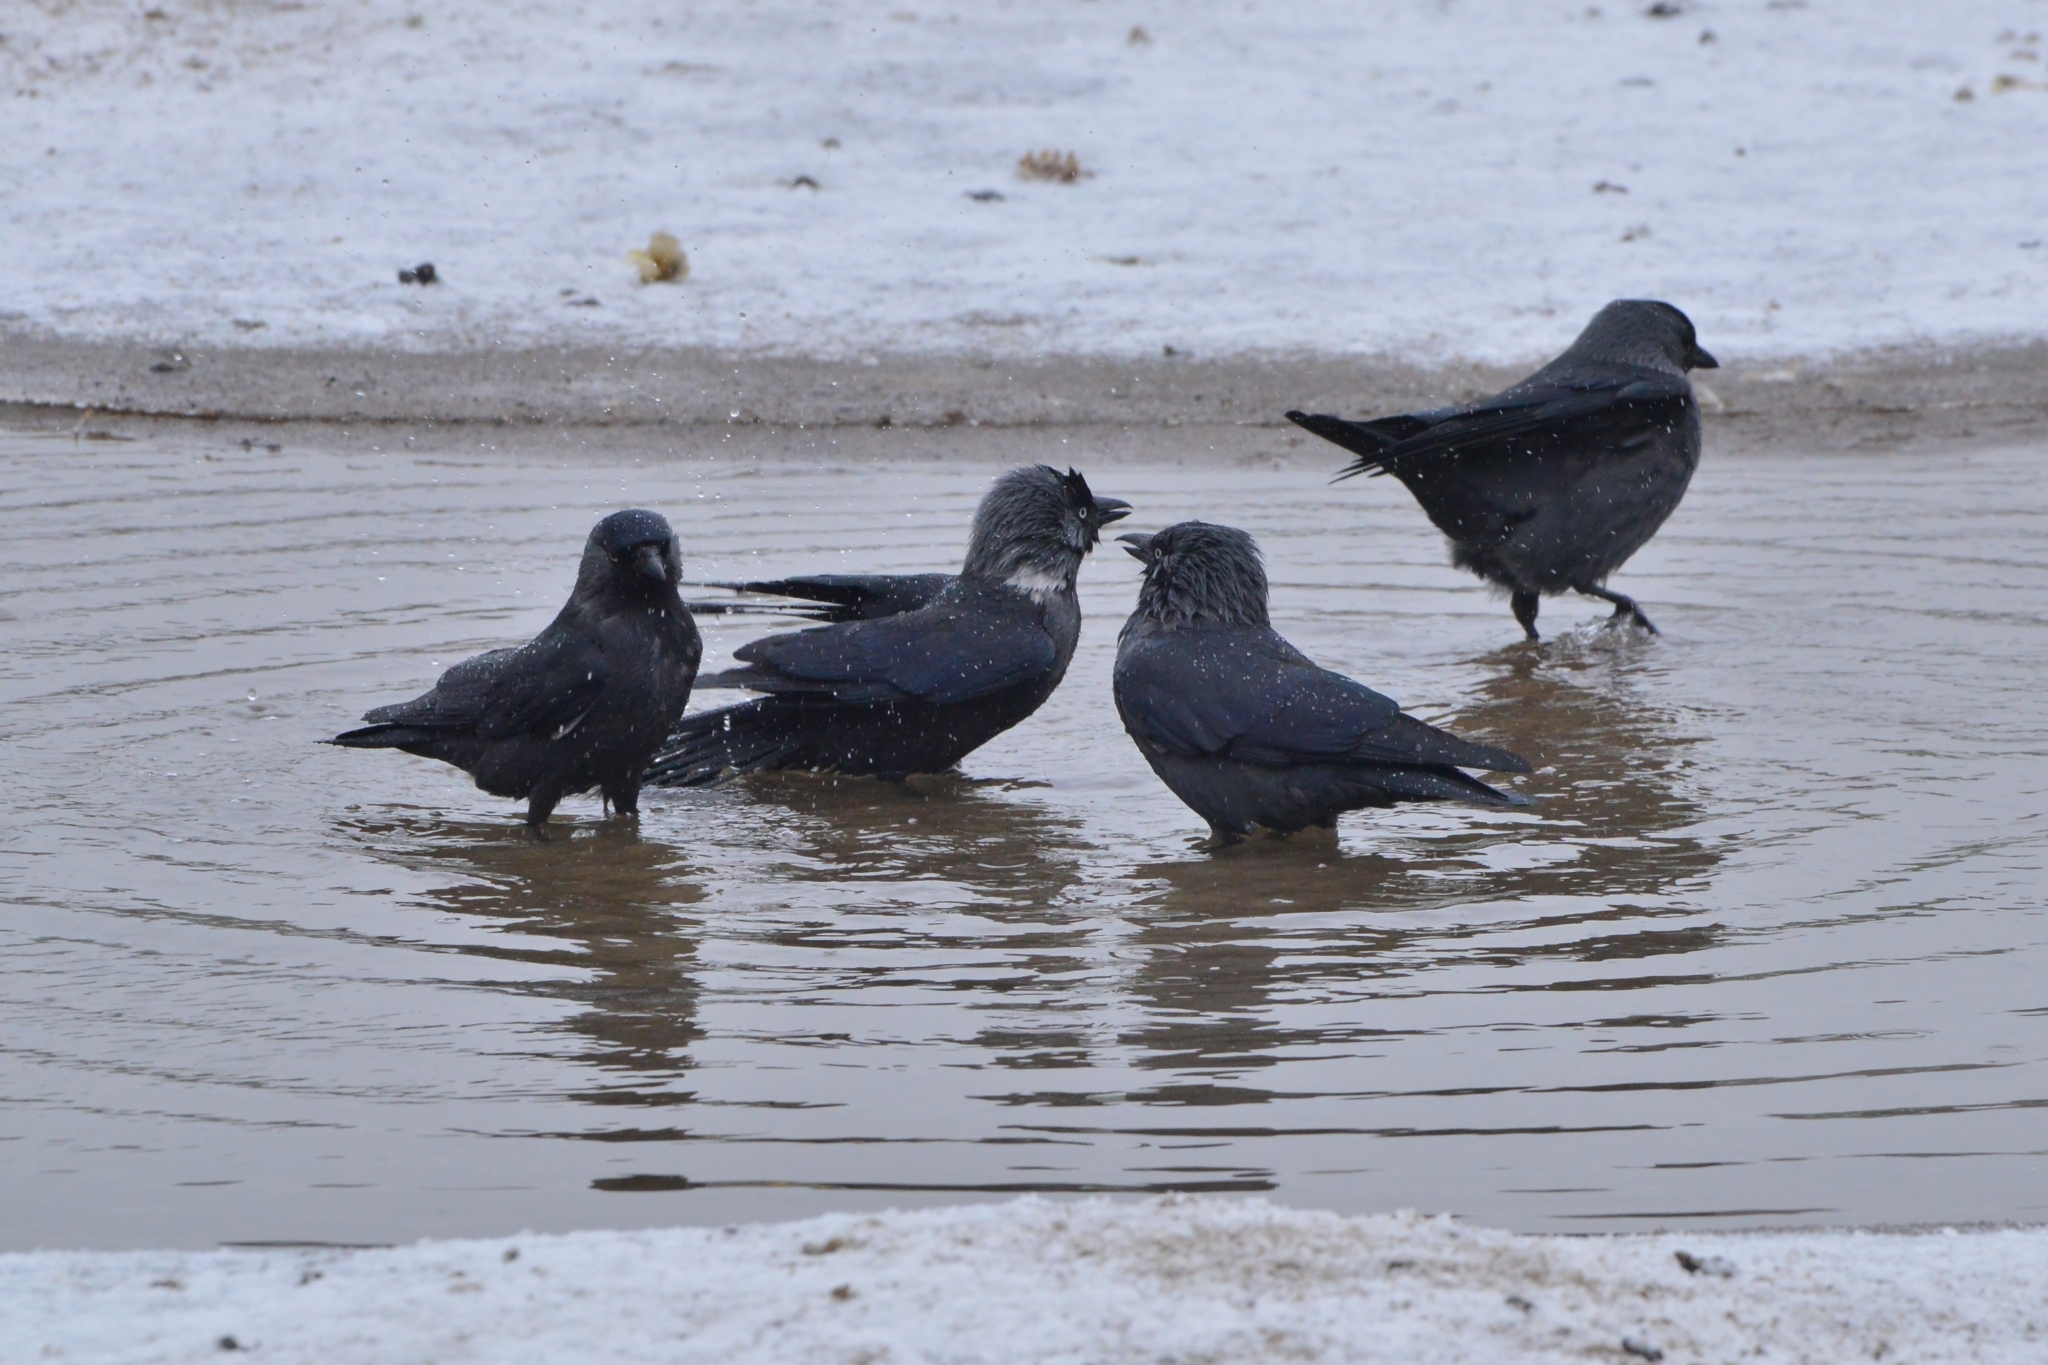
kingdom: Animalia
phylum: Chordata
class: Aves
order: Passeriformes
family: Corvidae
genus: Coloeus
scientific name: Coloeus monedula
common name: Western jackdaw
